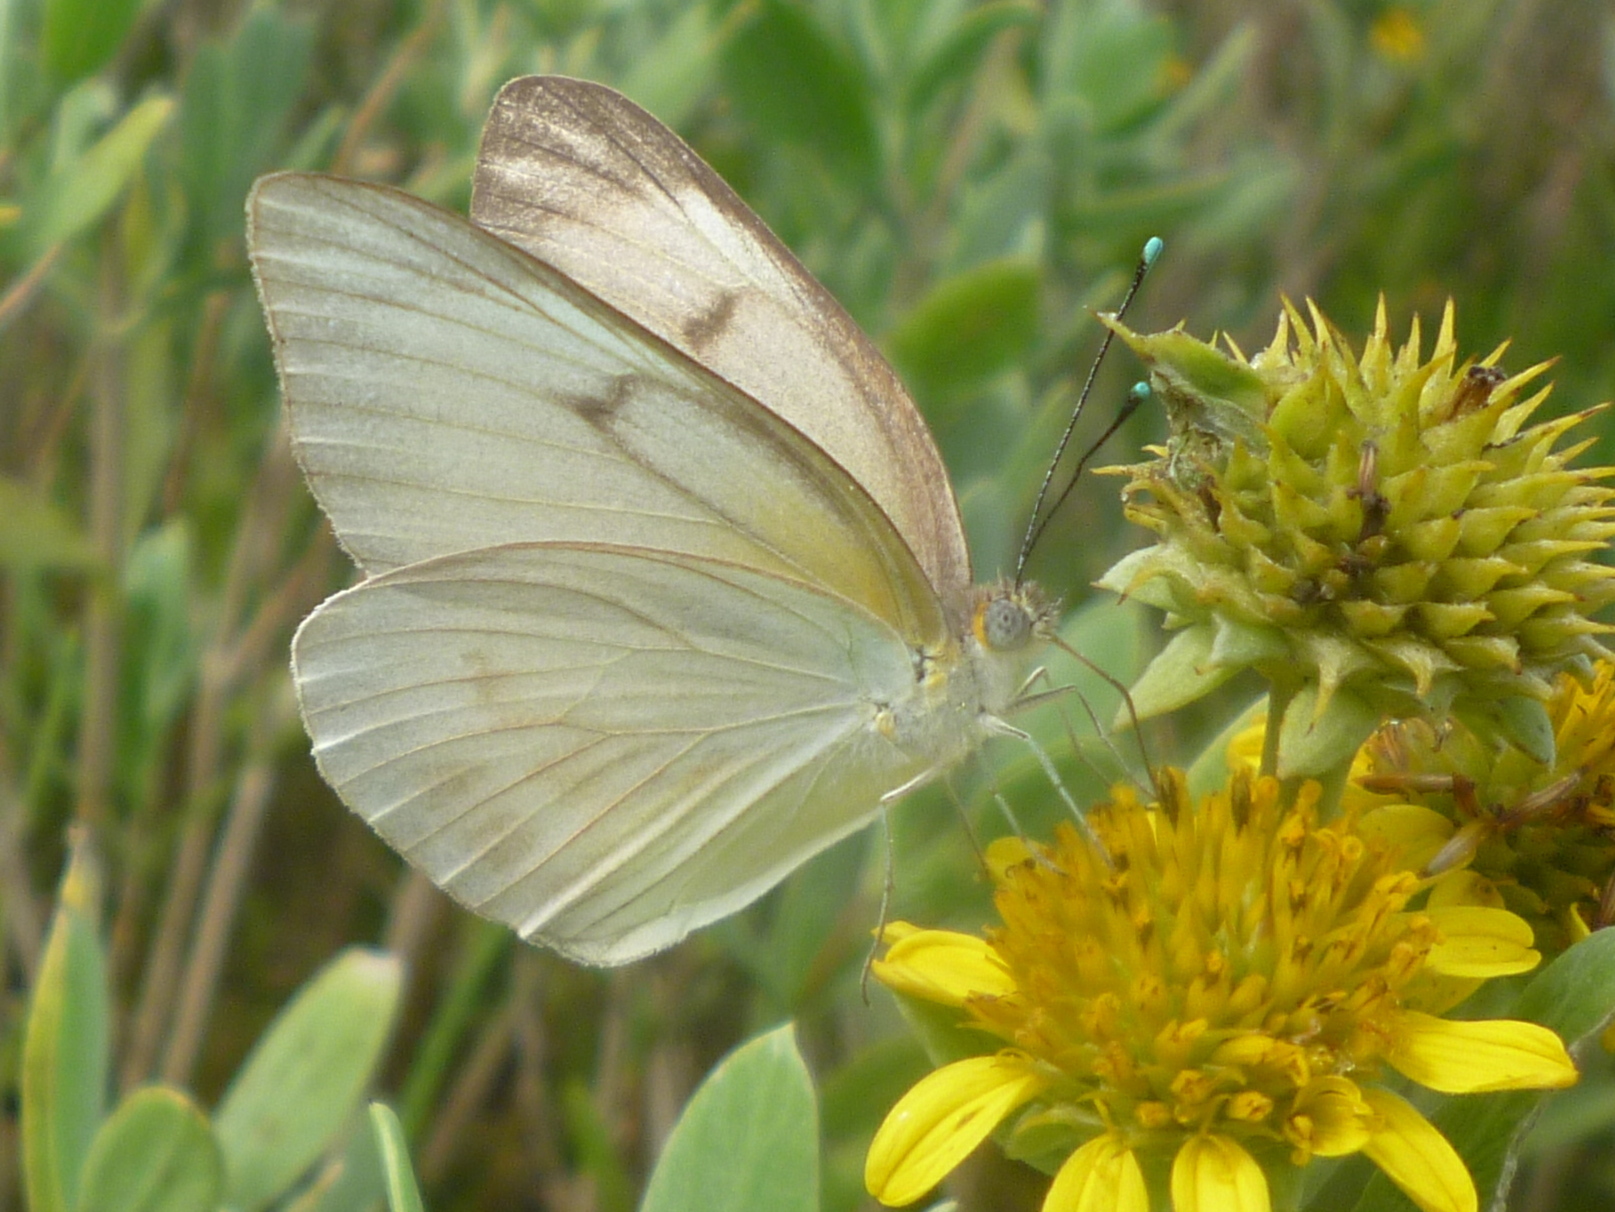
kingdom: Animalia
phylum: Arthropoda
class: Insecta
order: Lepidoptera
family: Pieridae
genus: Ascia
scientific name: Ascia monuste
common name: Great southern white
